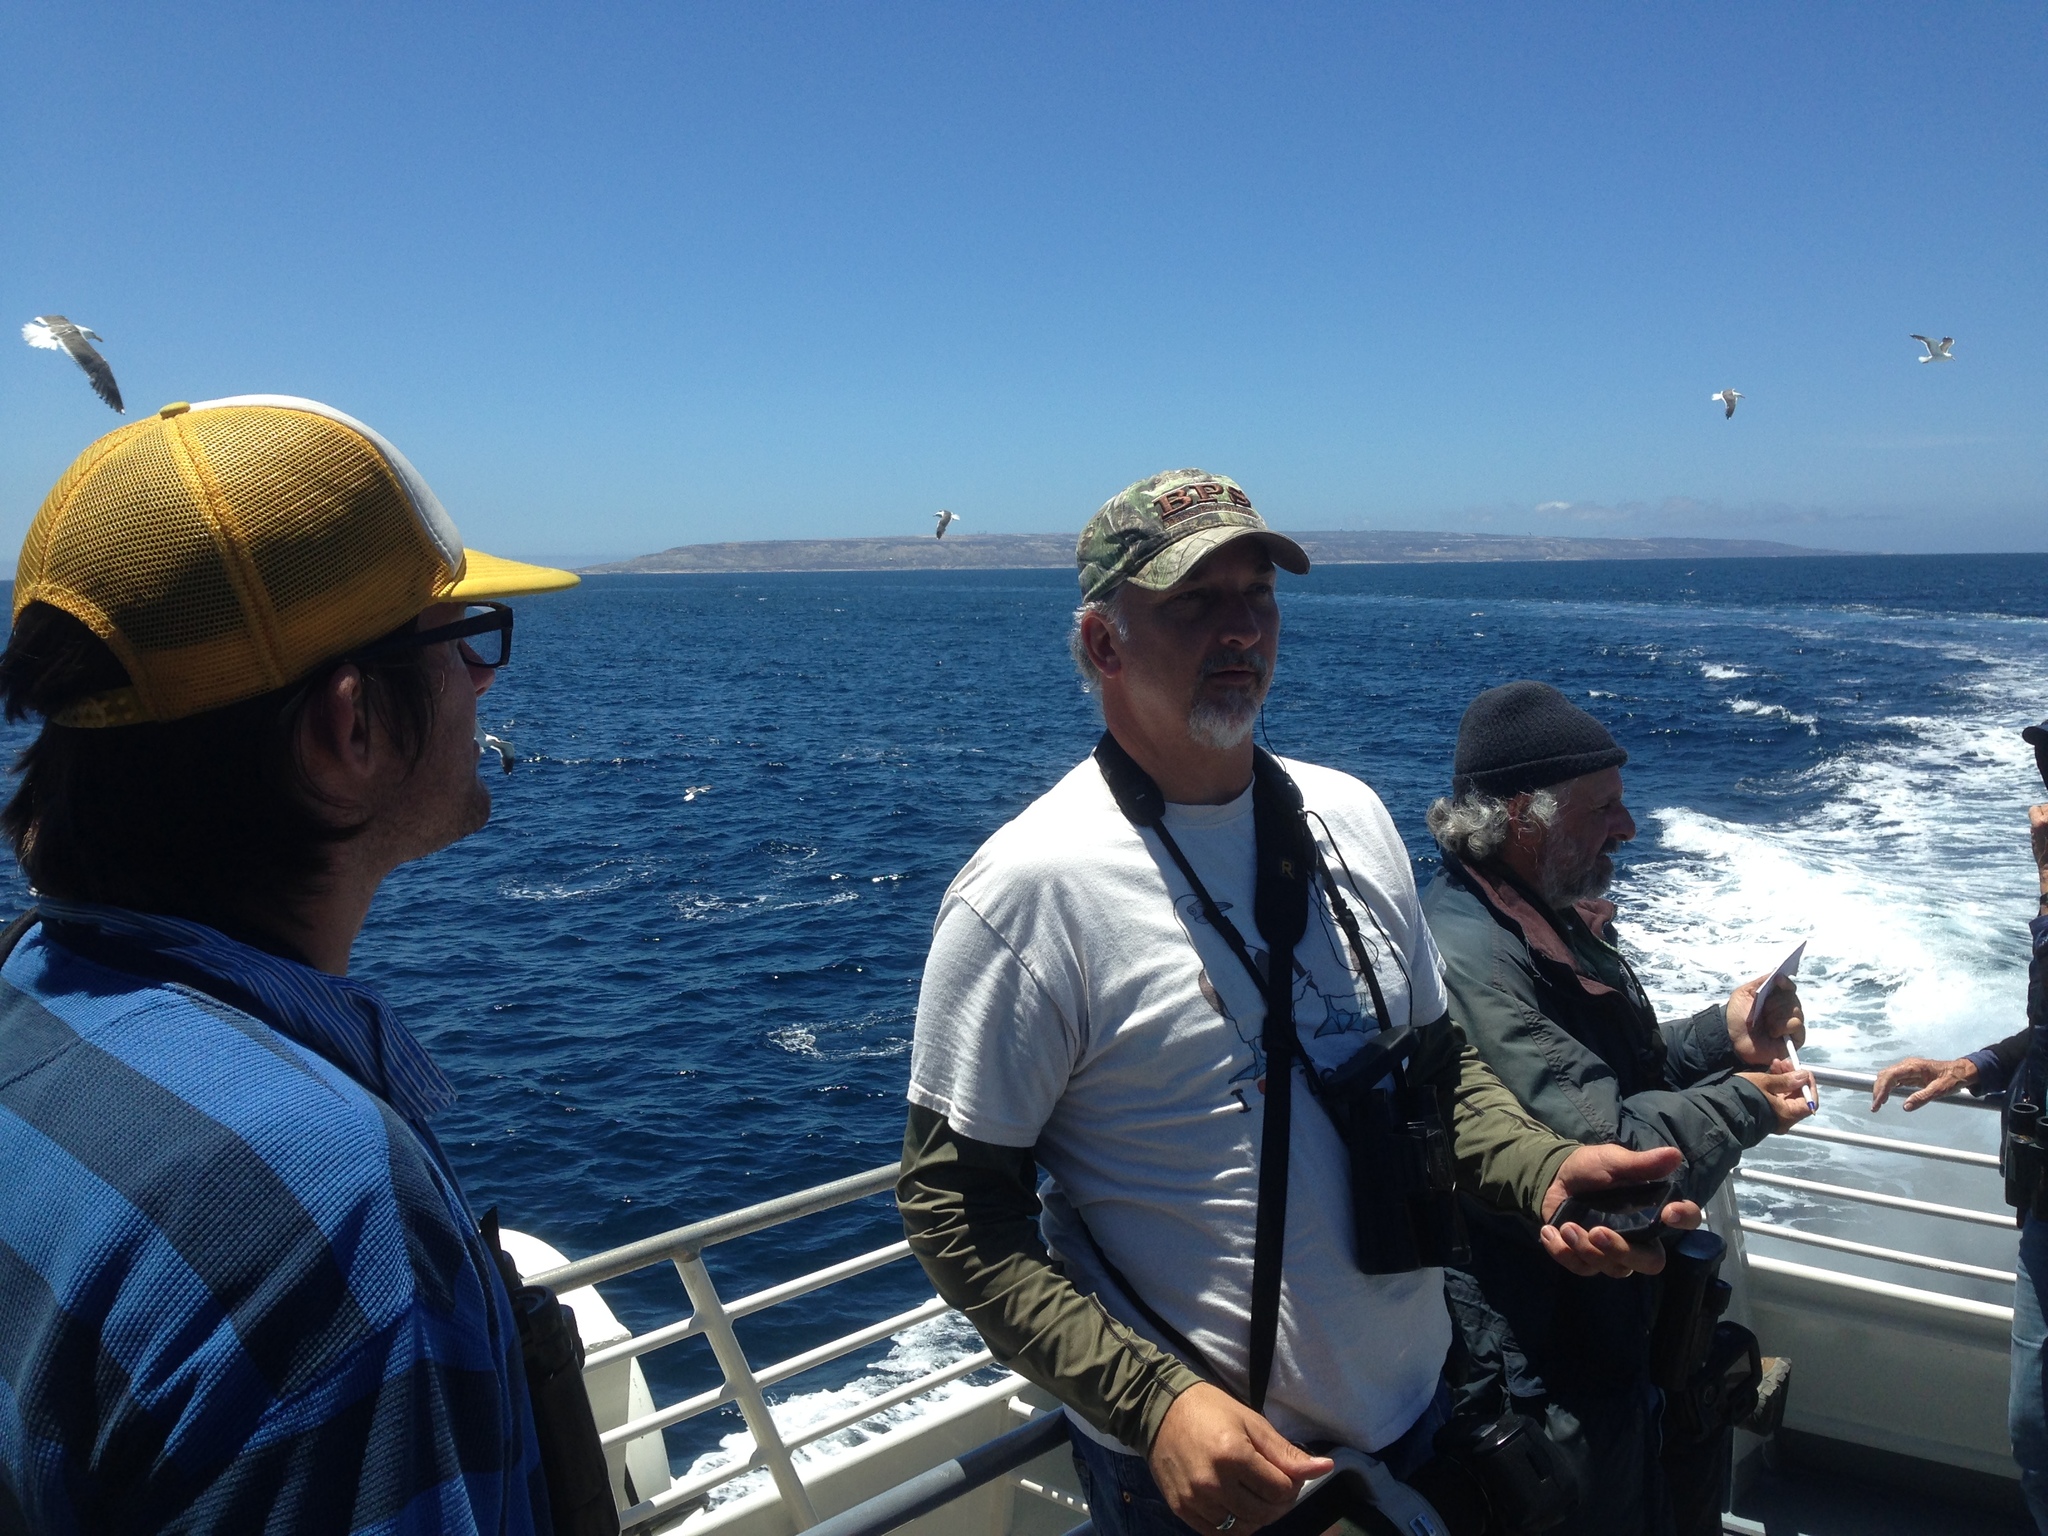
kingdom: Animalia
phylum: Chordata
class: Aves
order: Charadriiformes
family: Laridae
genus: Larus
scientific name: Larus occidentalis
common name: Western gull
